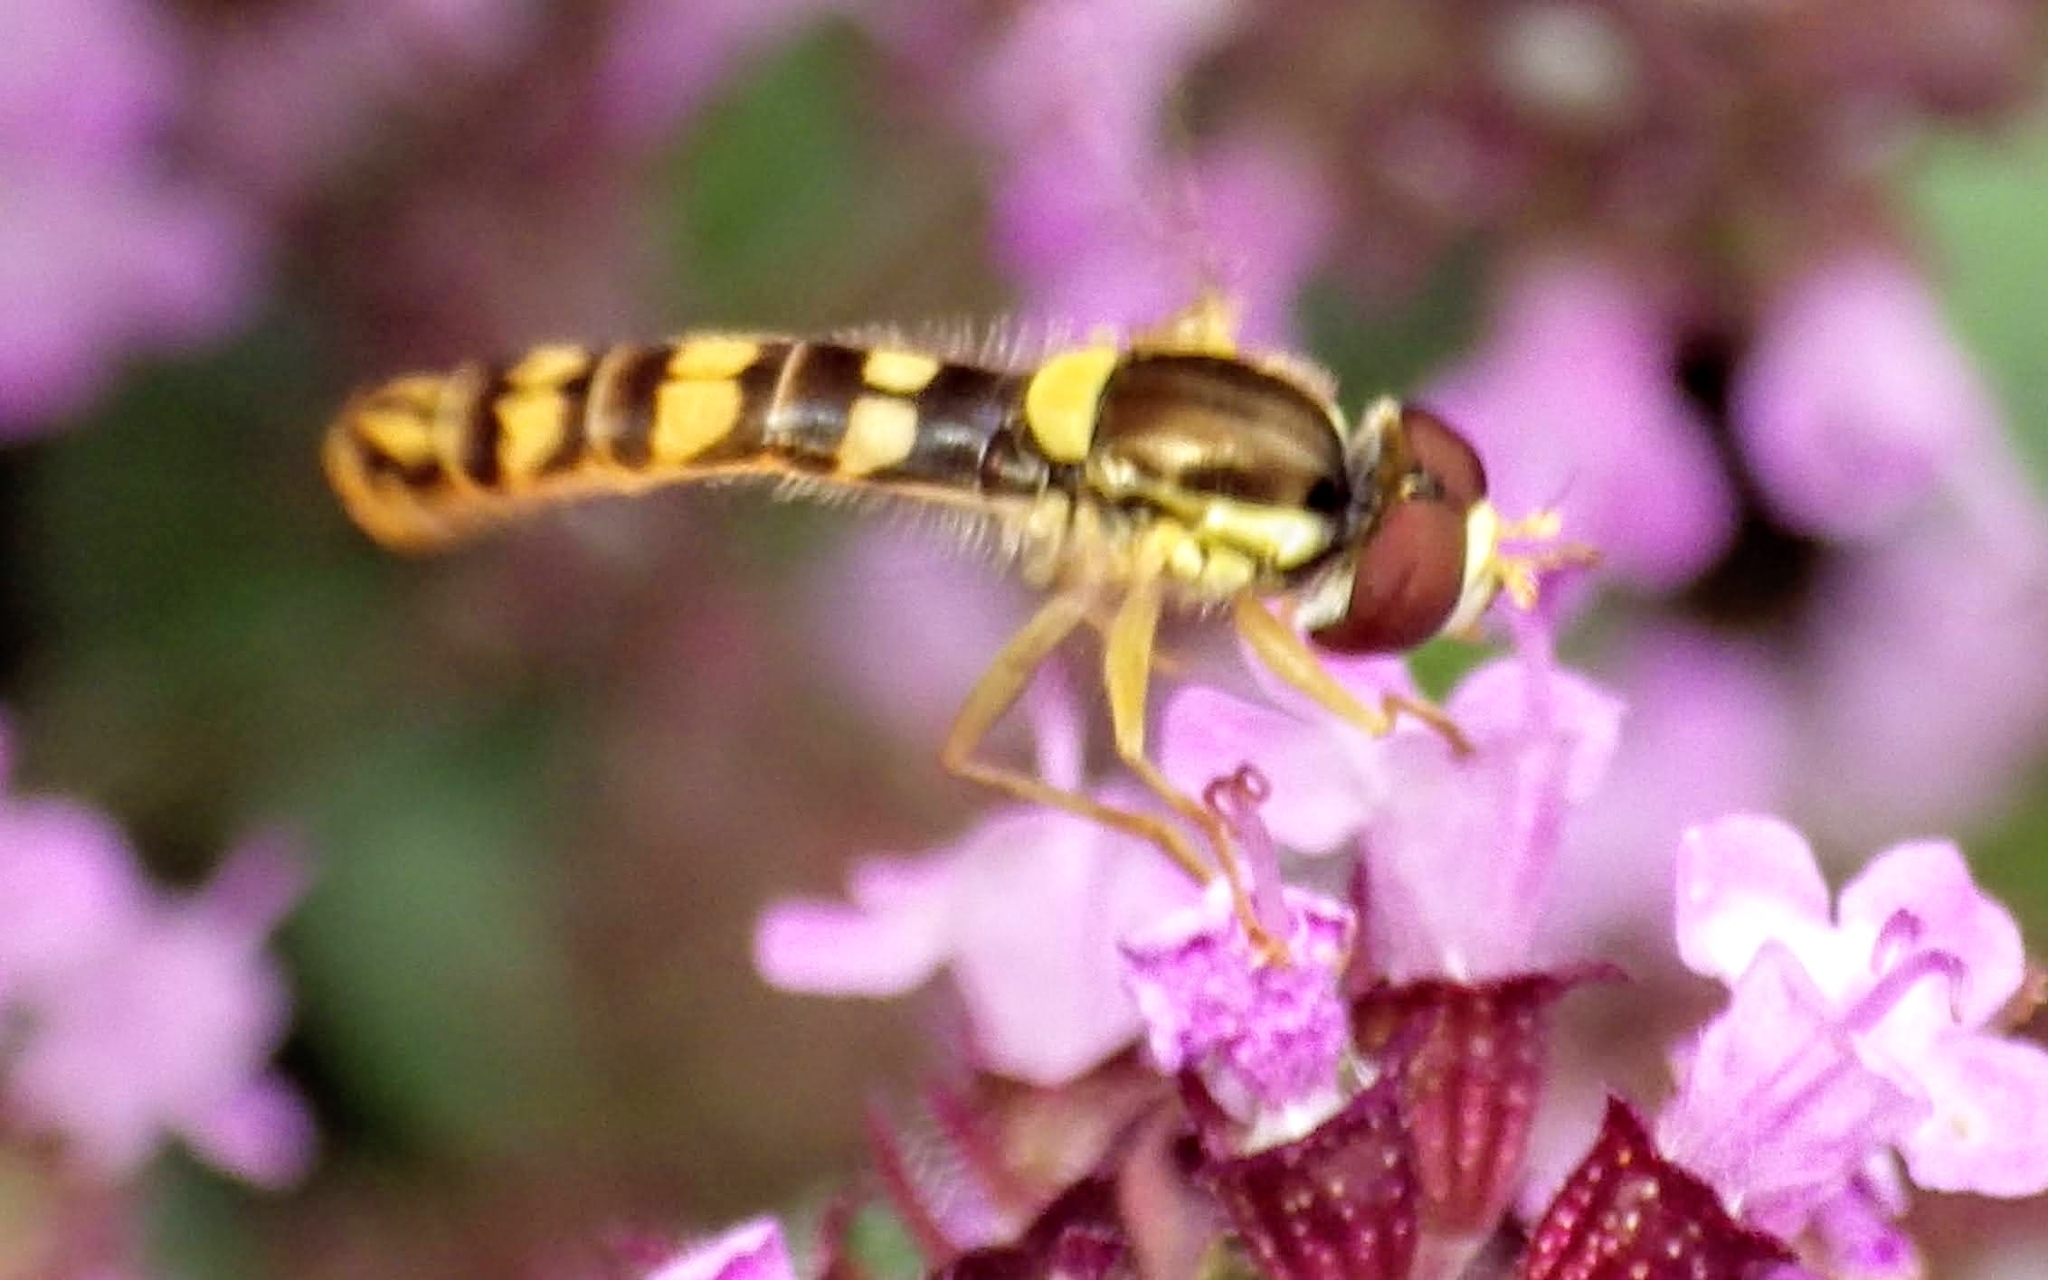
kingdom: Animalia
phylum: Arthropoda
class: Insecta
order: Diptera
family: Syrphidae
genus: Sphaerophoria
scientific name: Sphaerophoria scripta
